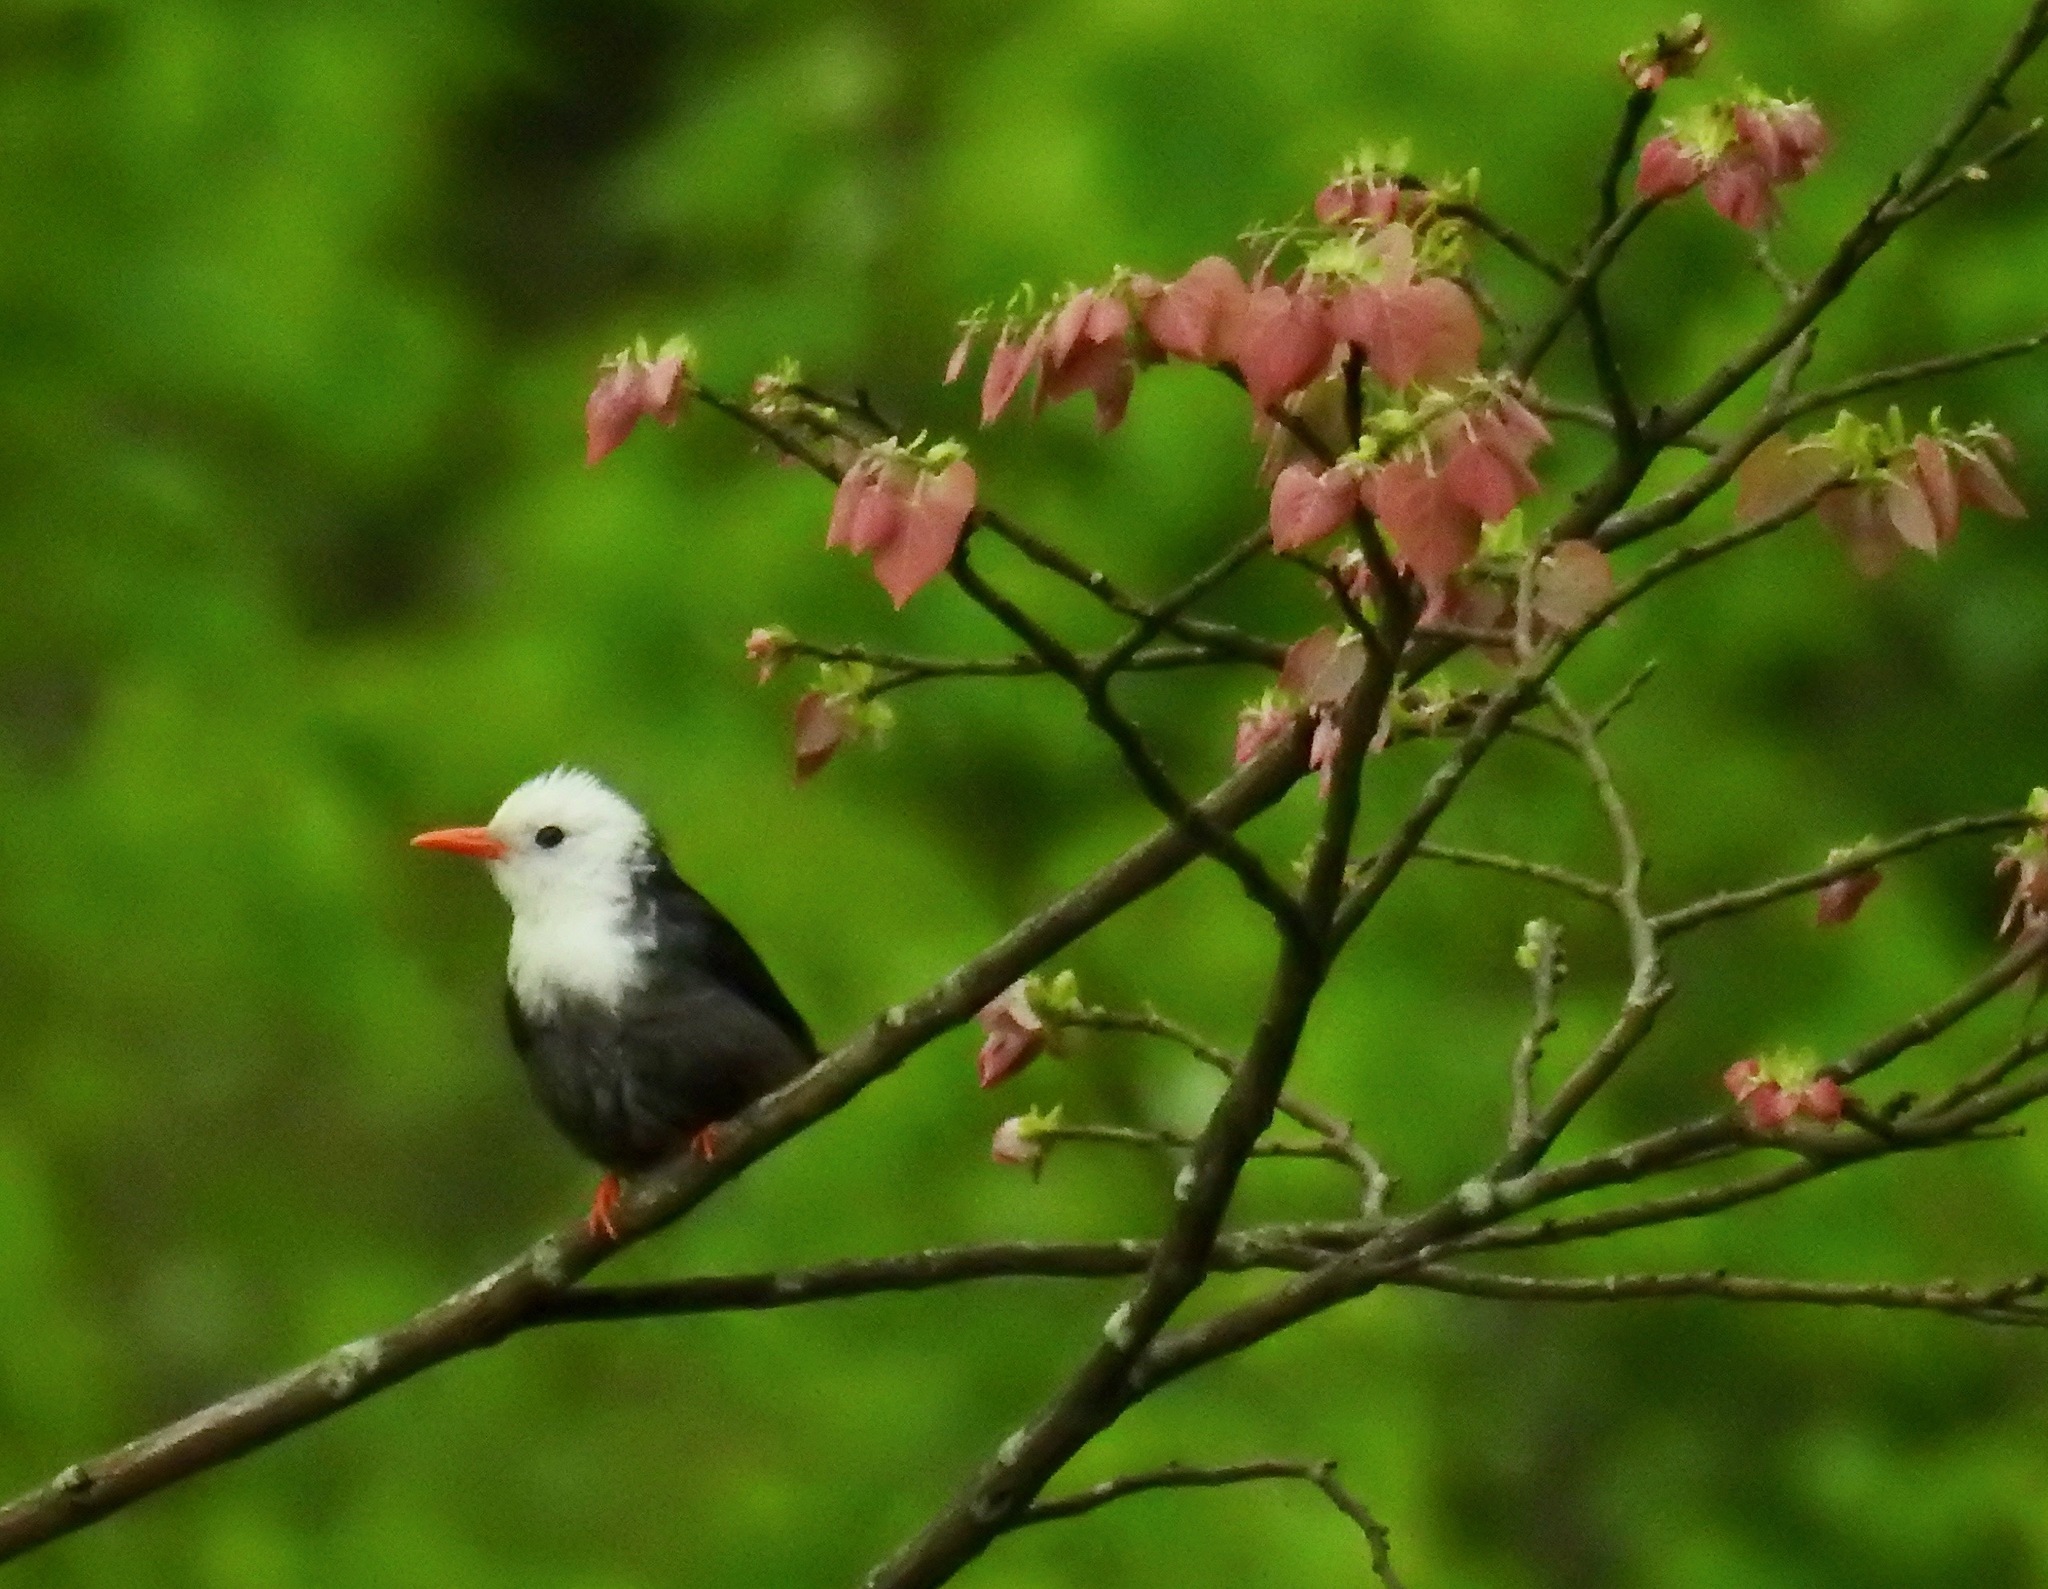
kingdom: Animalia
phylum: Chordata
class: Aves
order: Passeriformes
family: Pycnonotidae
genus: Hypsipetes
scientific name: Hypsipetes leucocephalus
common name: Black bulbul
